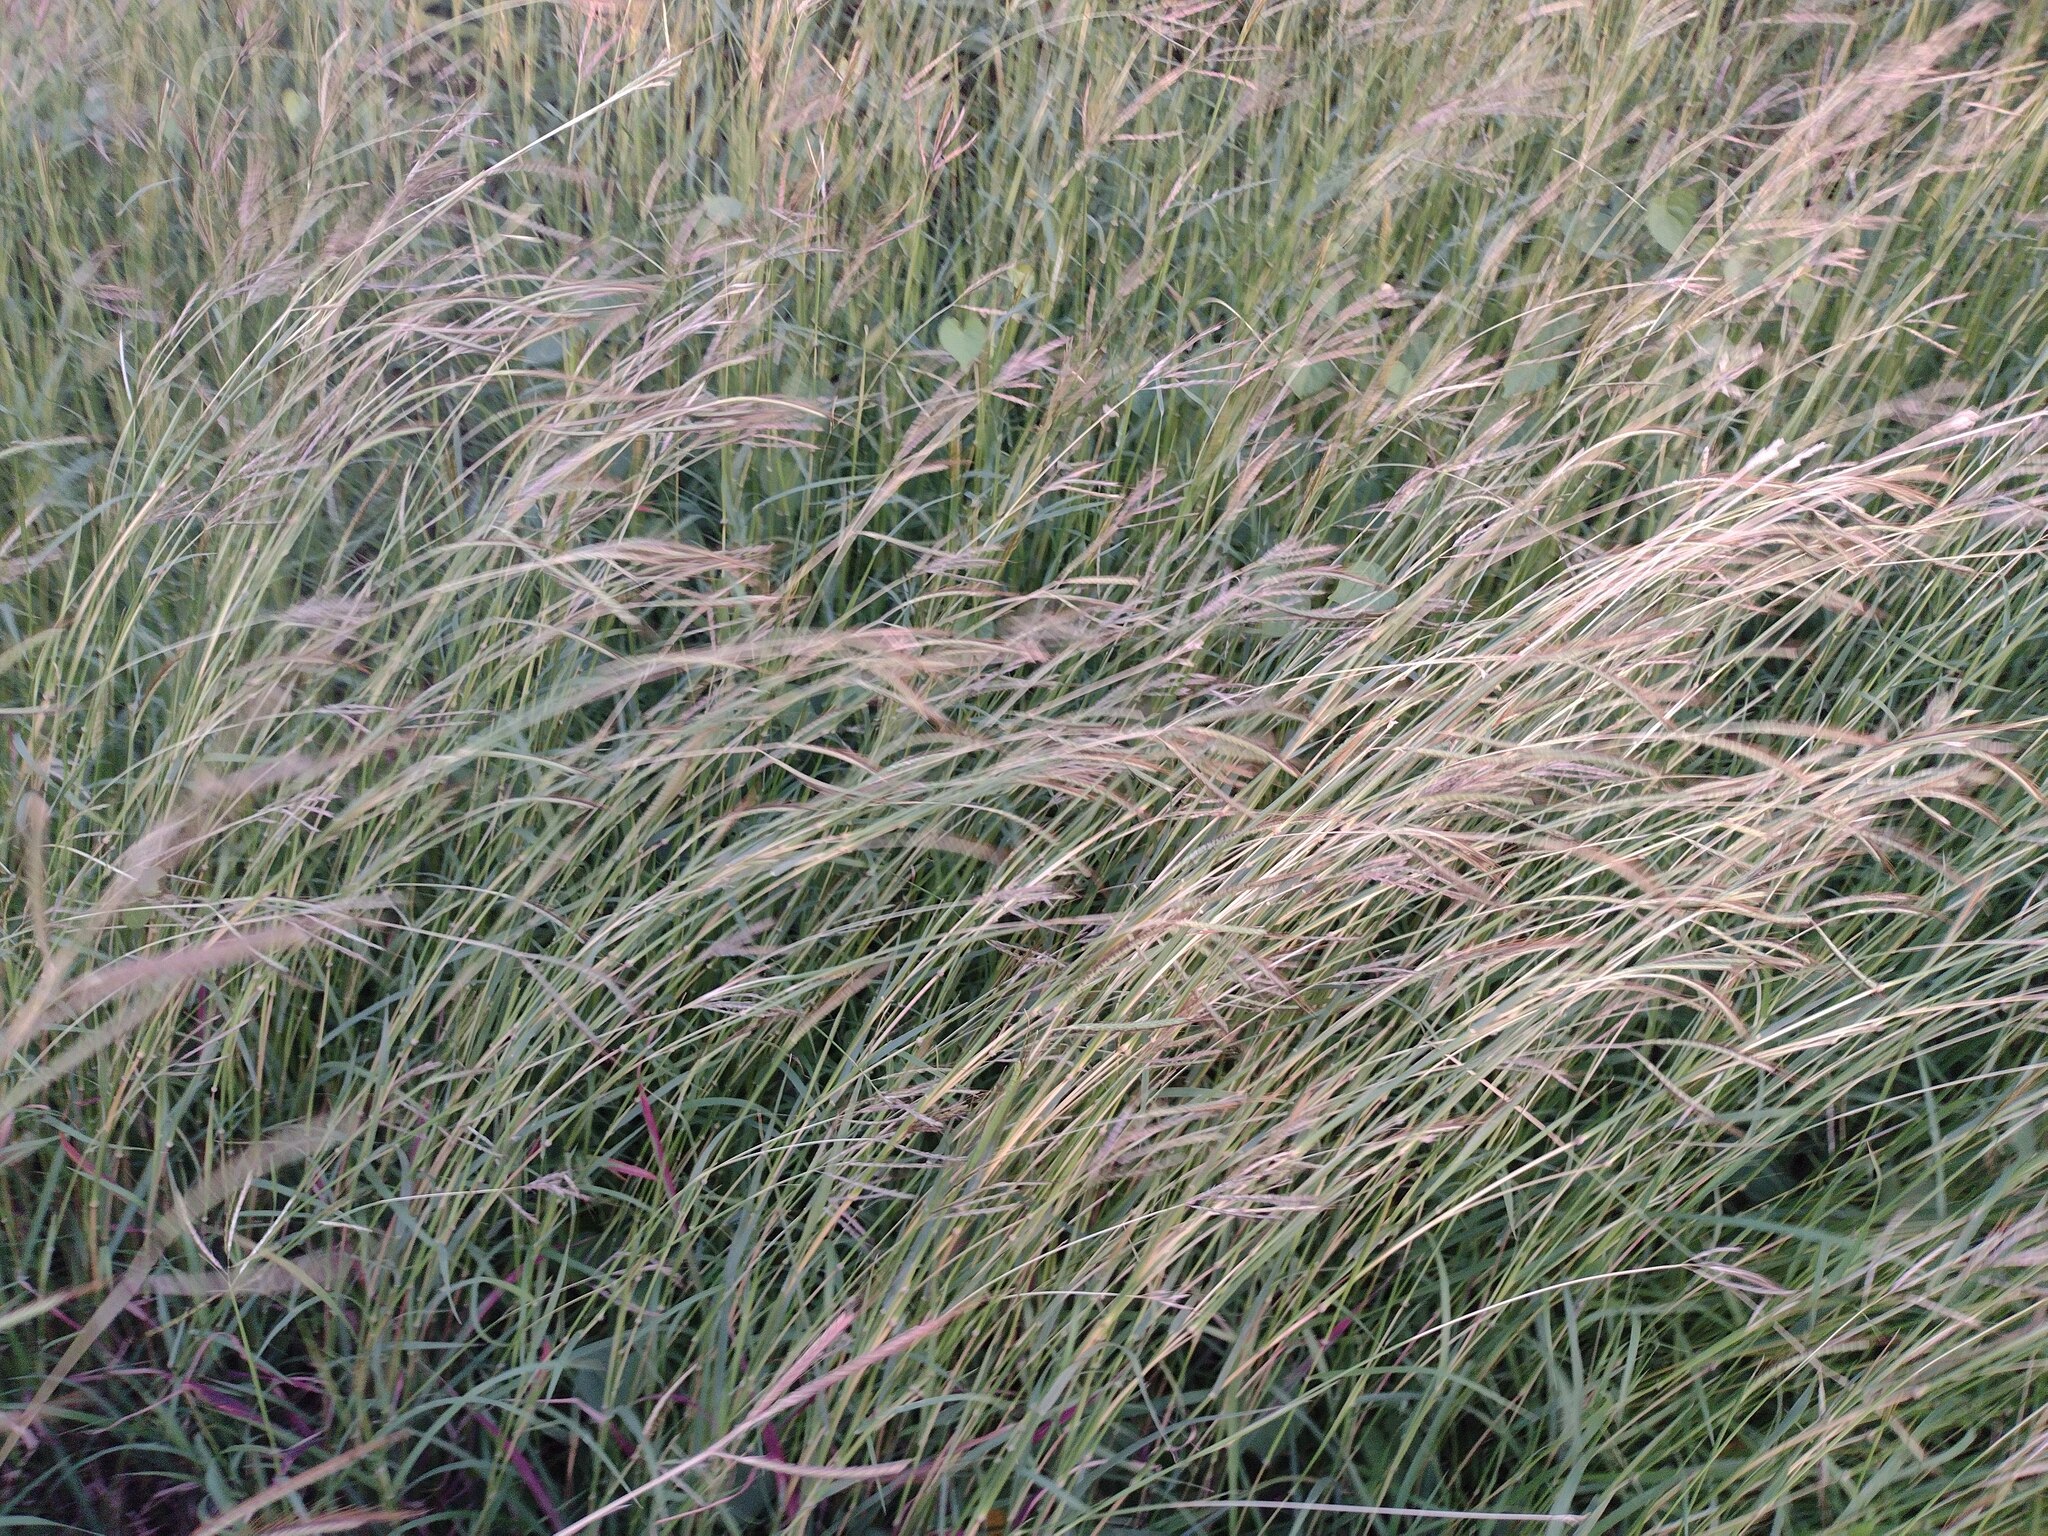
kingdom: Plantae
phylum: Tracheophyta
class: Liliopsida
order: Poales
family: Poaceae
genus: Dichanthium
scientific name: Dichanthium aristatum
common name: Angleton bluestem
